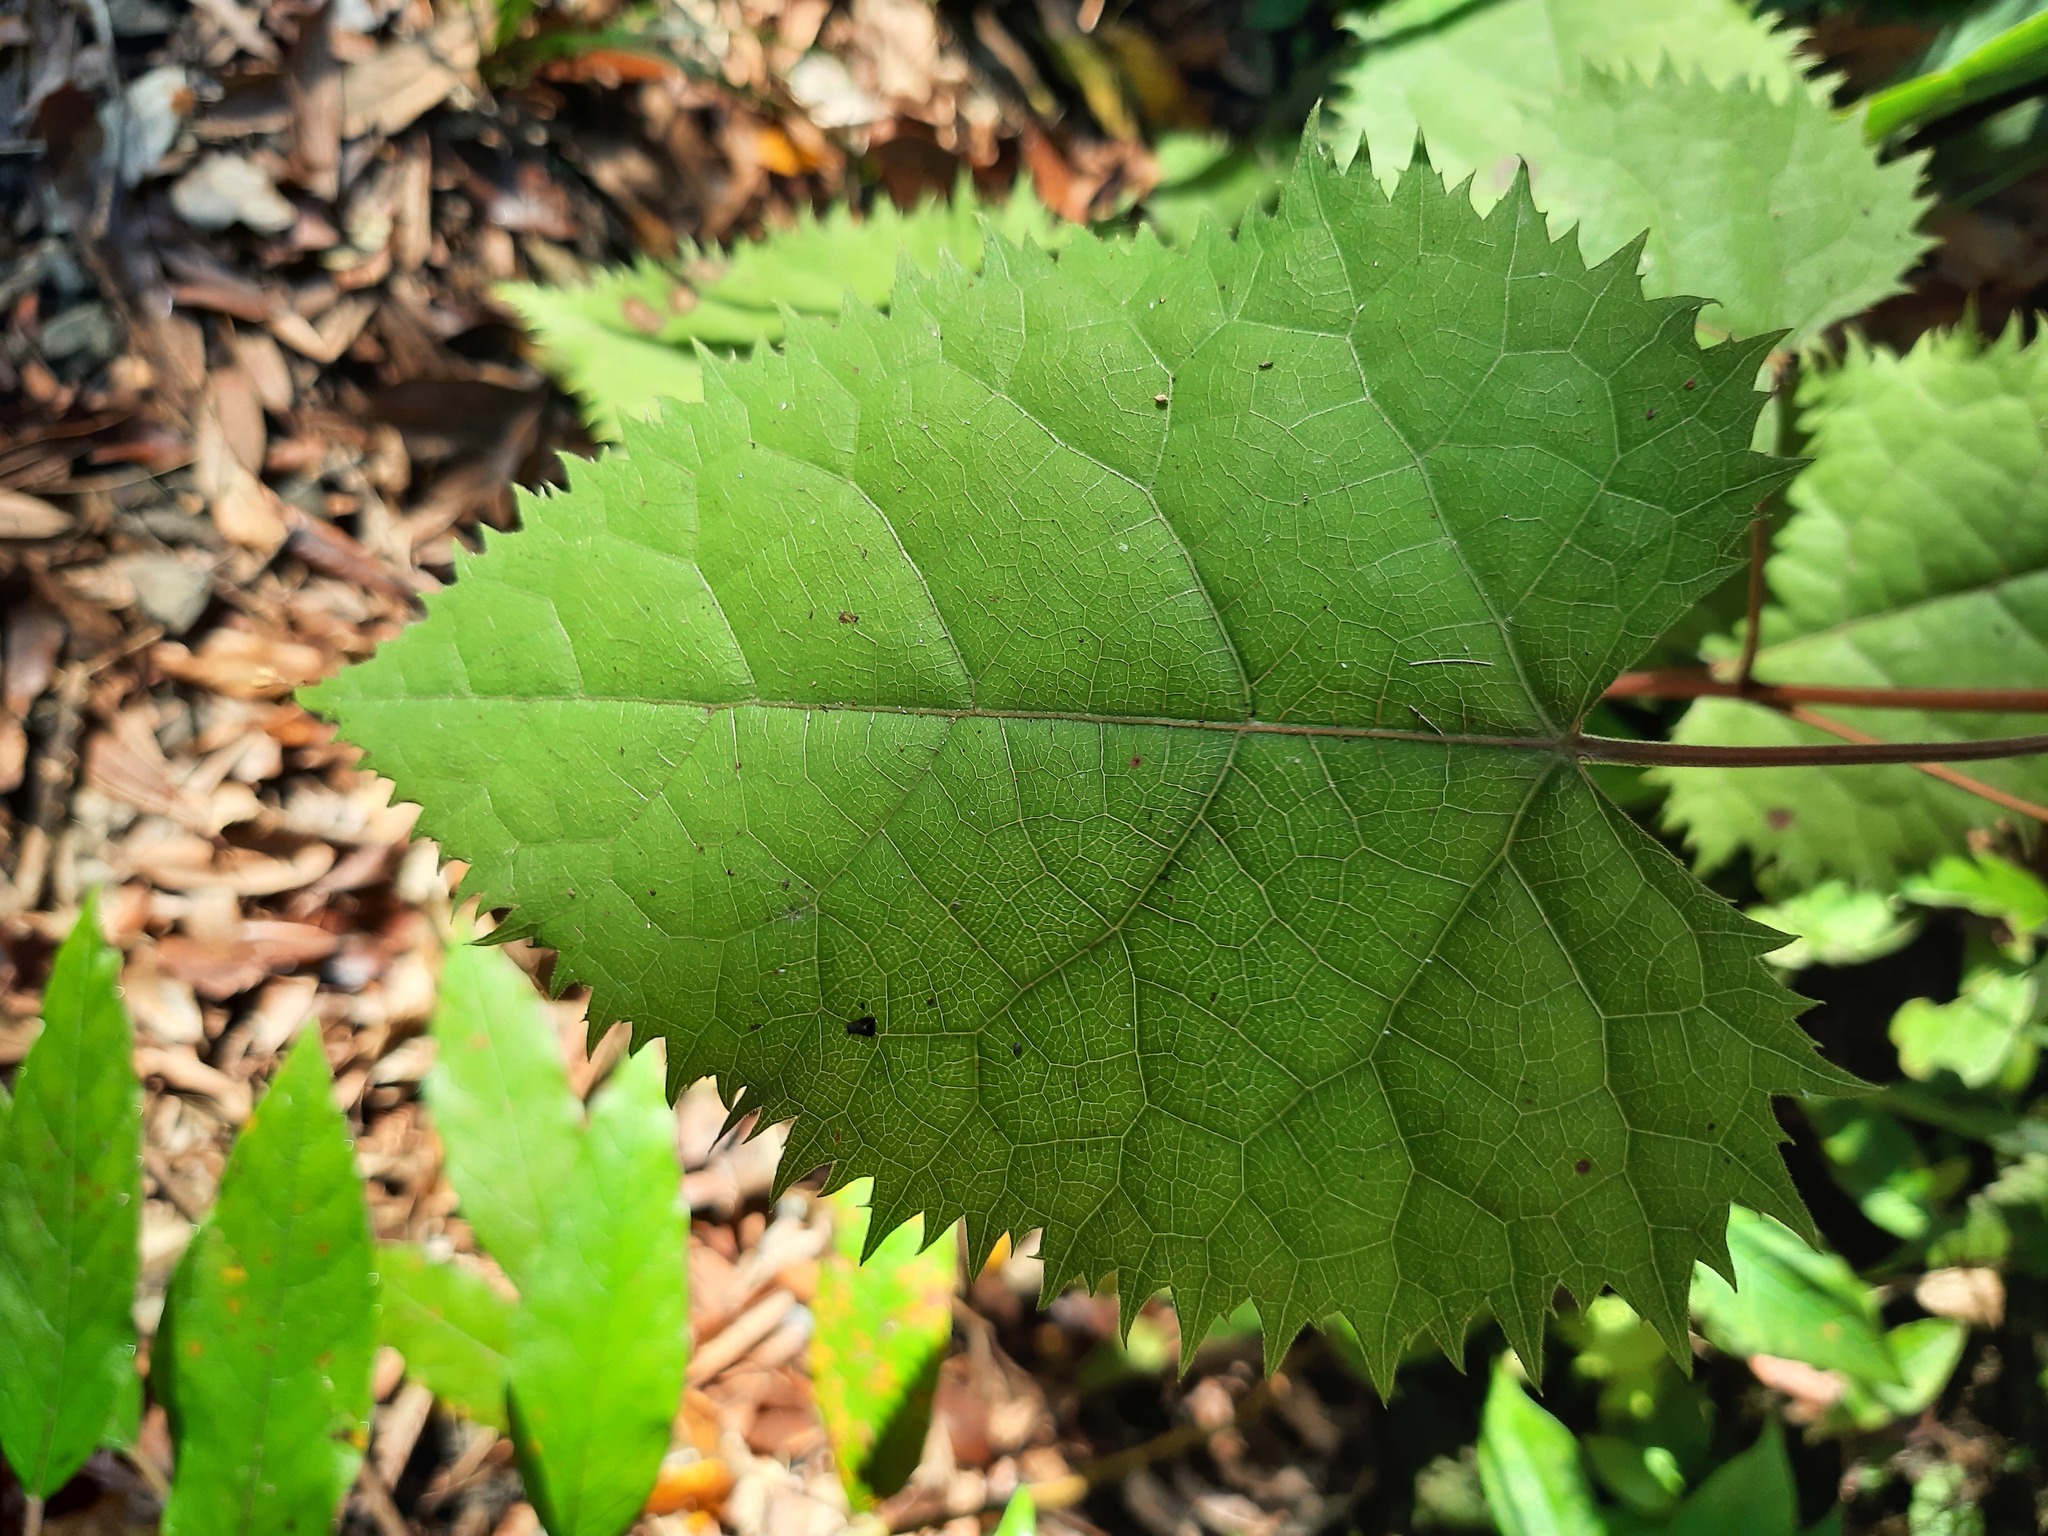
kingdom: Plantae
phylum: Tracheophyta
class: Magnoliopsida
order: Oxalidales
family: Elaeocarpaceae
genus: Aristotelia
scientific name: Aristotelia serrata
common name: New zealand wineberry
